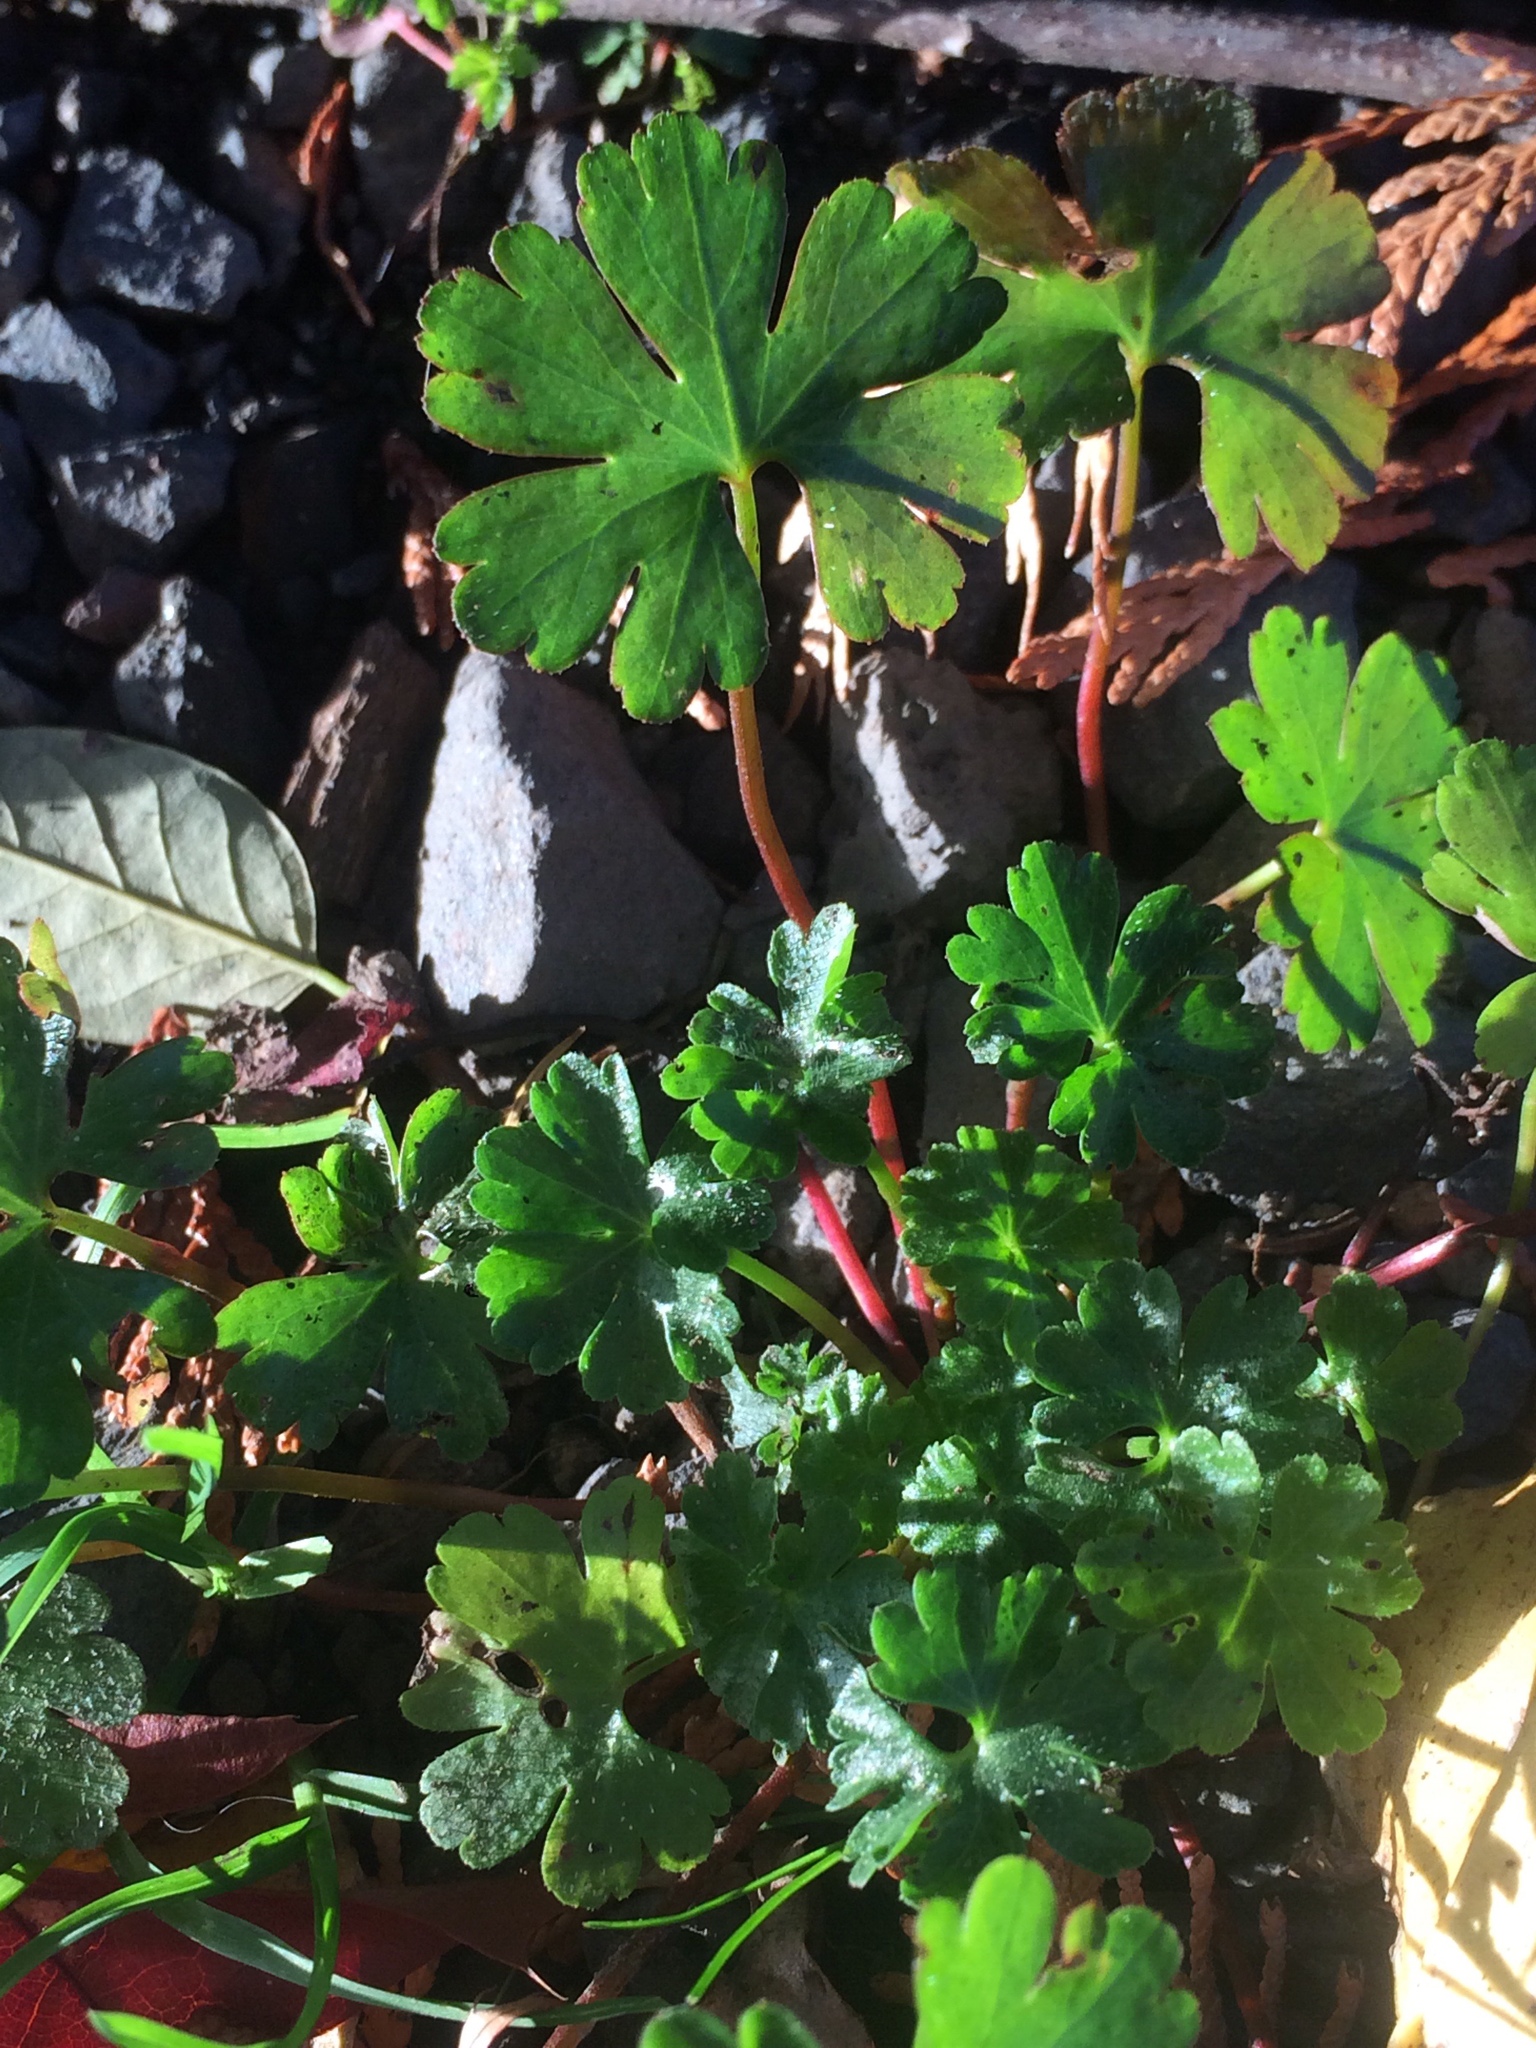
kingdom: Plantae
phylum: Tracheophyta
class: Magnoliopsida
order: Geraniales
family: Geraniaceae
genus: Geranium
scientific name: Geranium lucidum
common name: Shining crane's-bill
